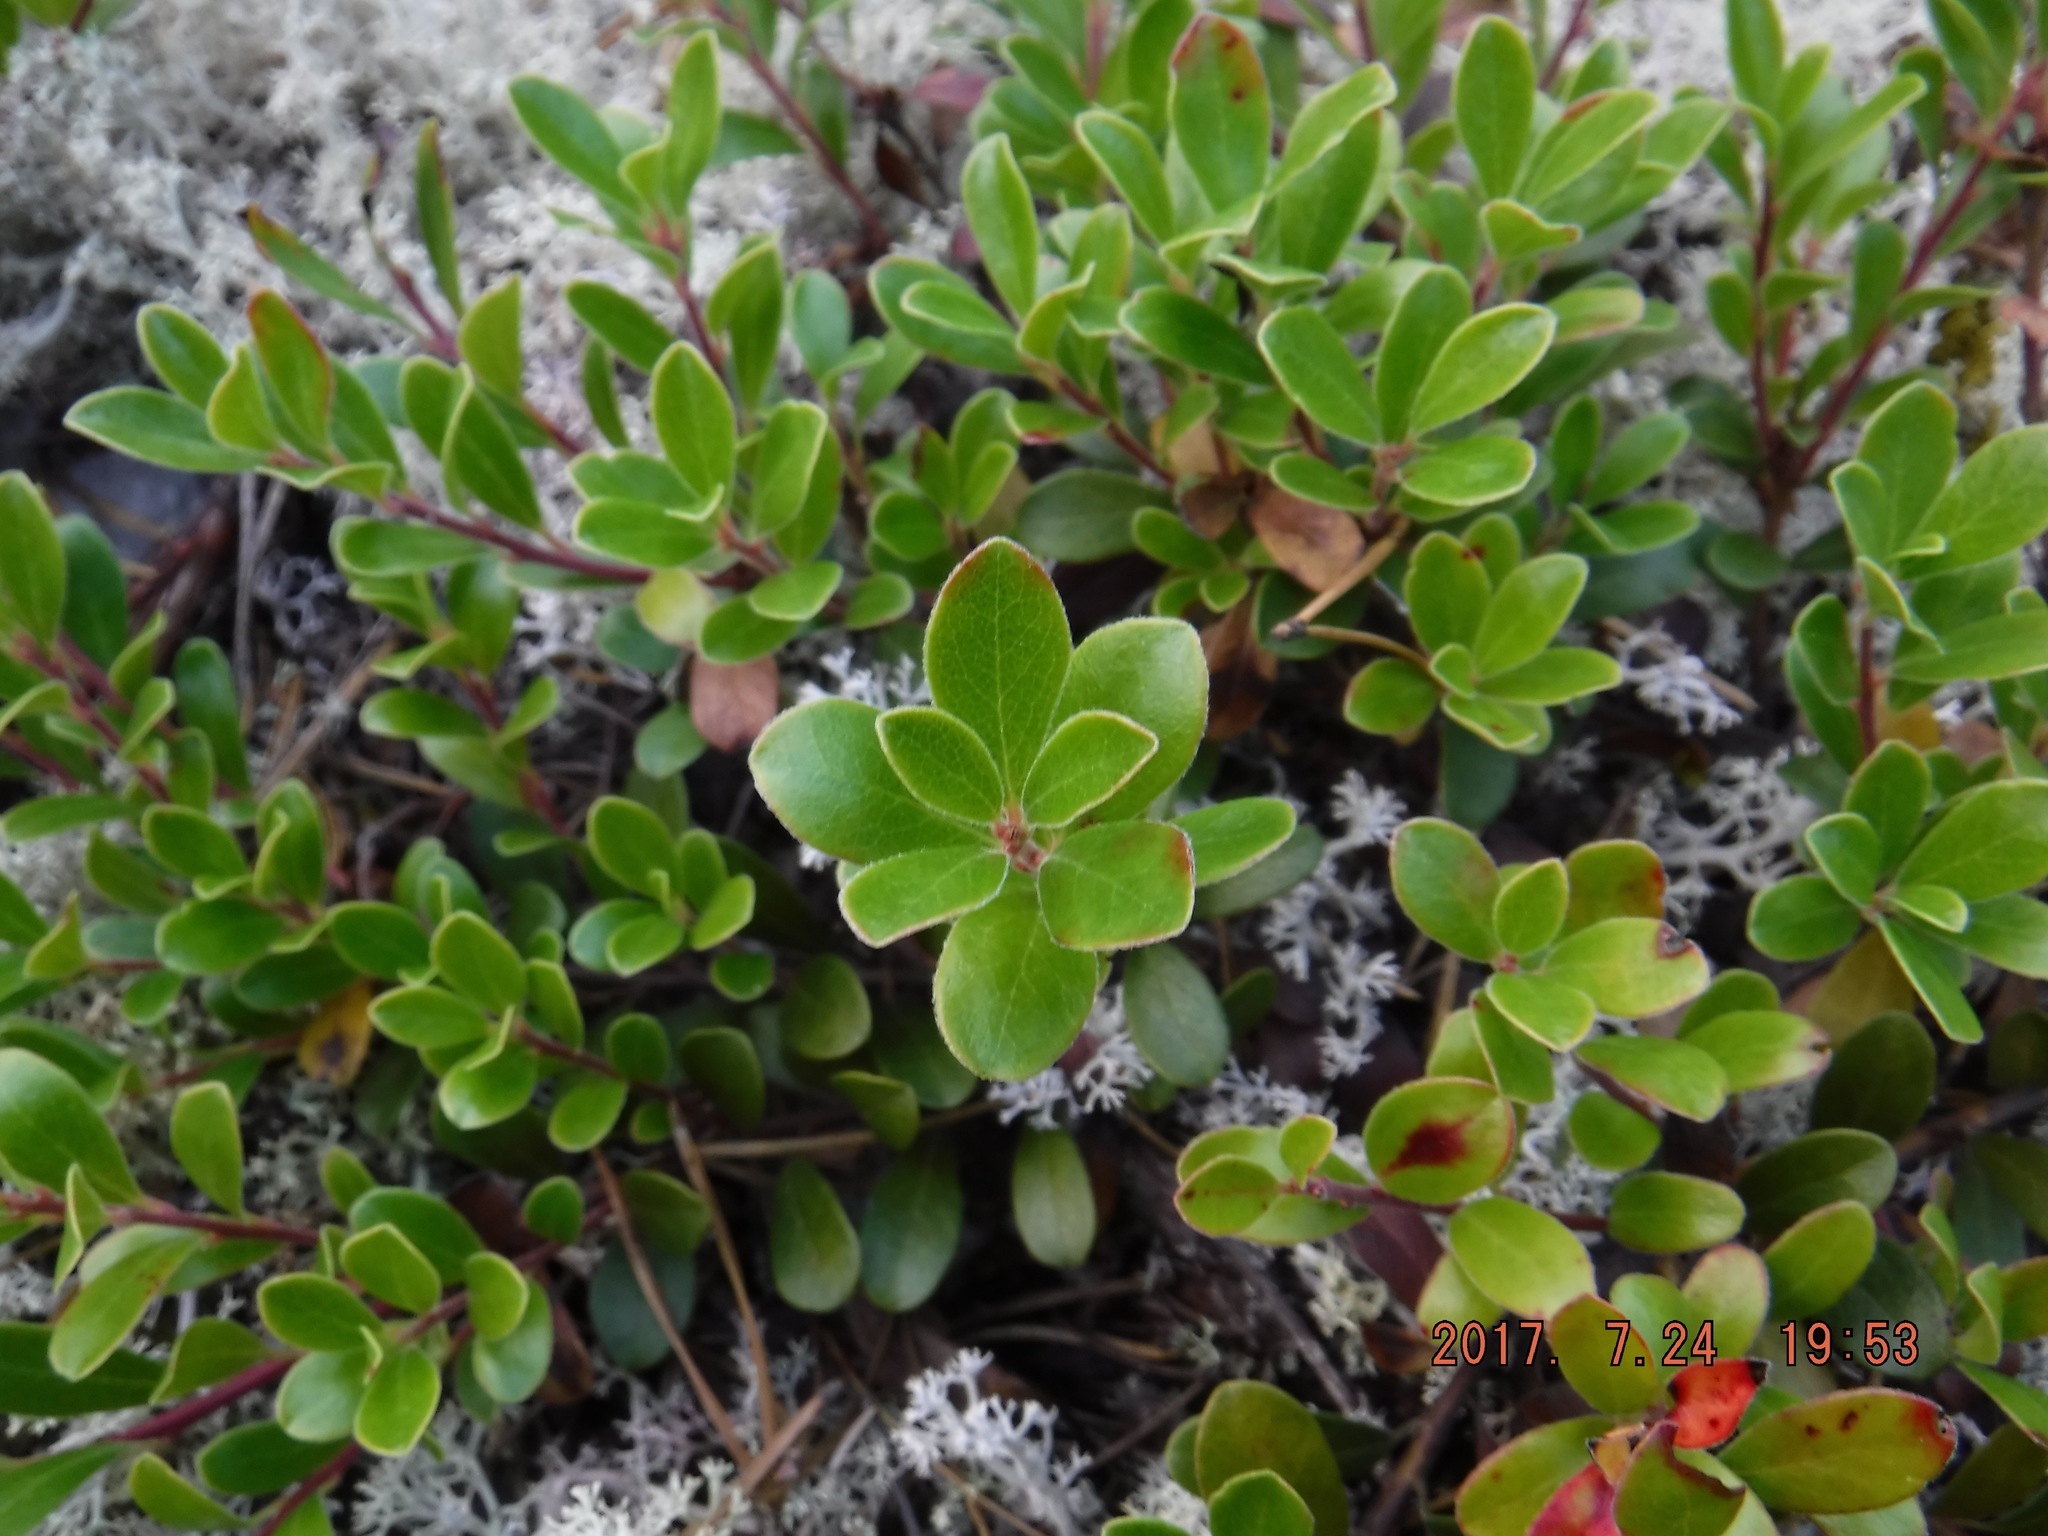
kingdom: Plantae
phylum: Tracheophyta
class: Magnoliopsida
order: Ericales
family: Ericaceae
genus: Arctostaphylos
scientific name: Arctostaphylos uva-ursi
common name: Bearberry
